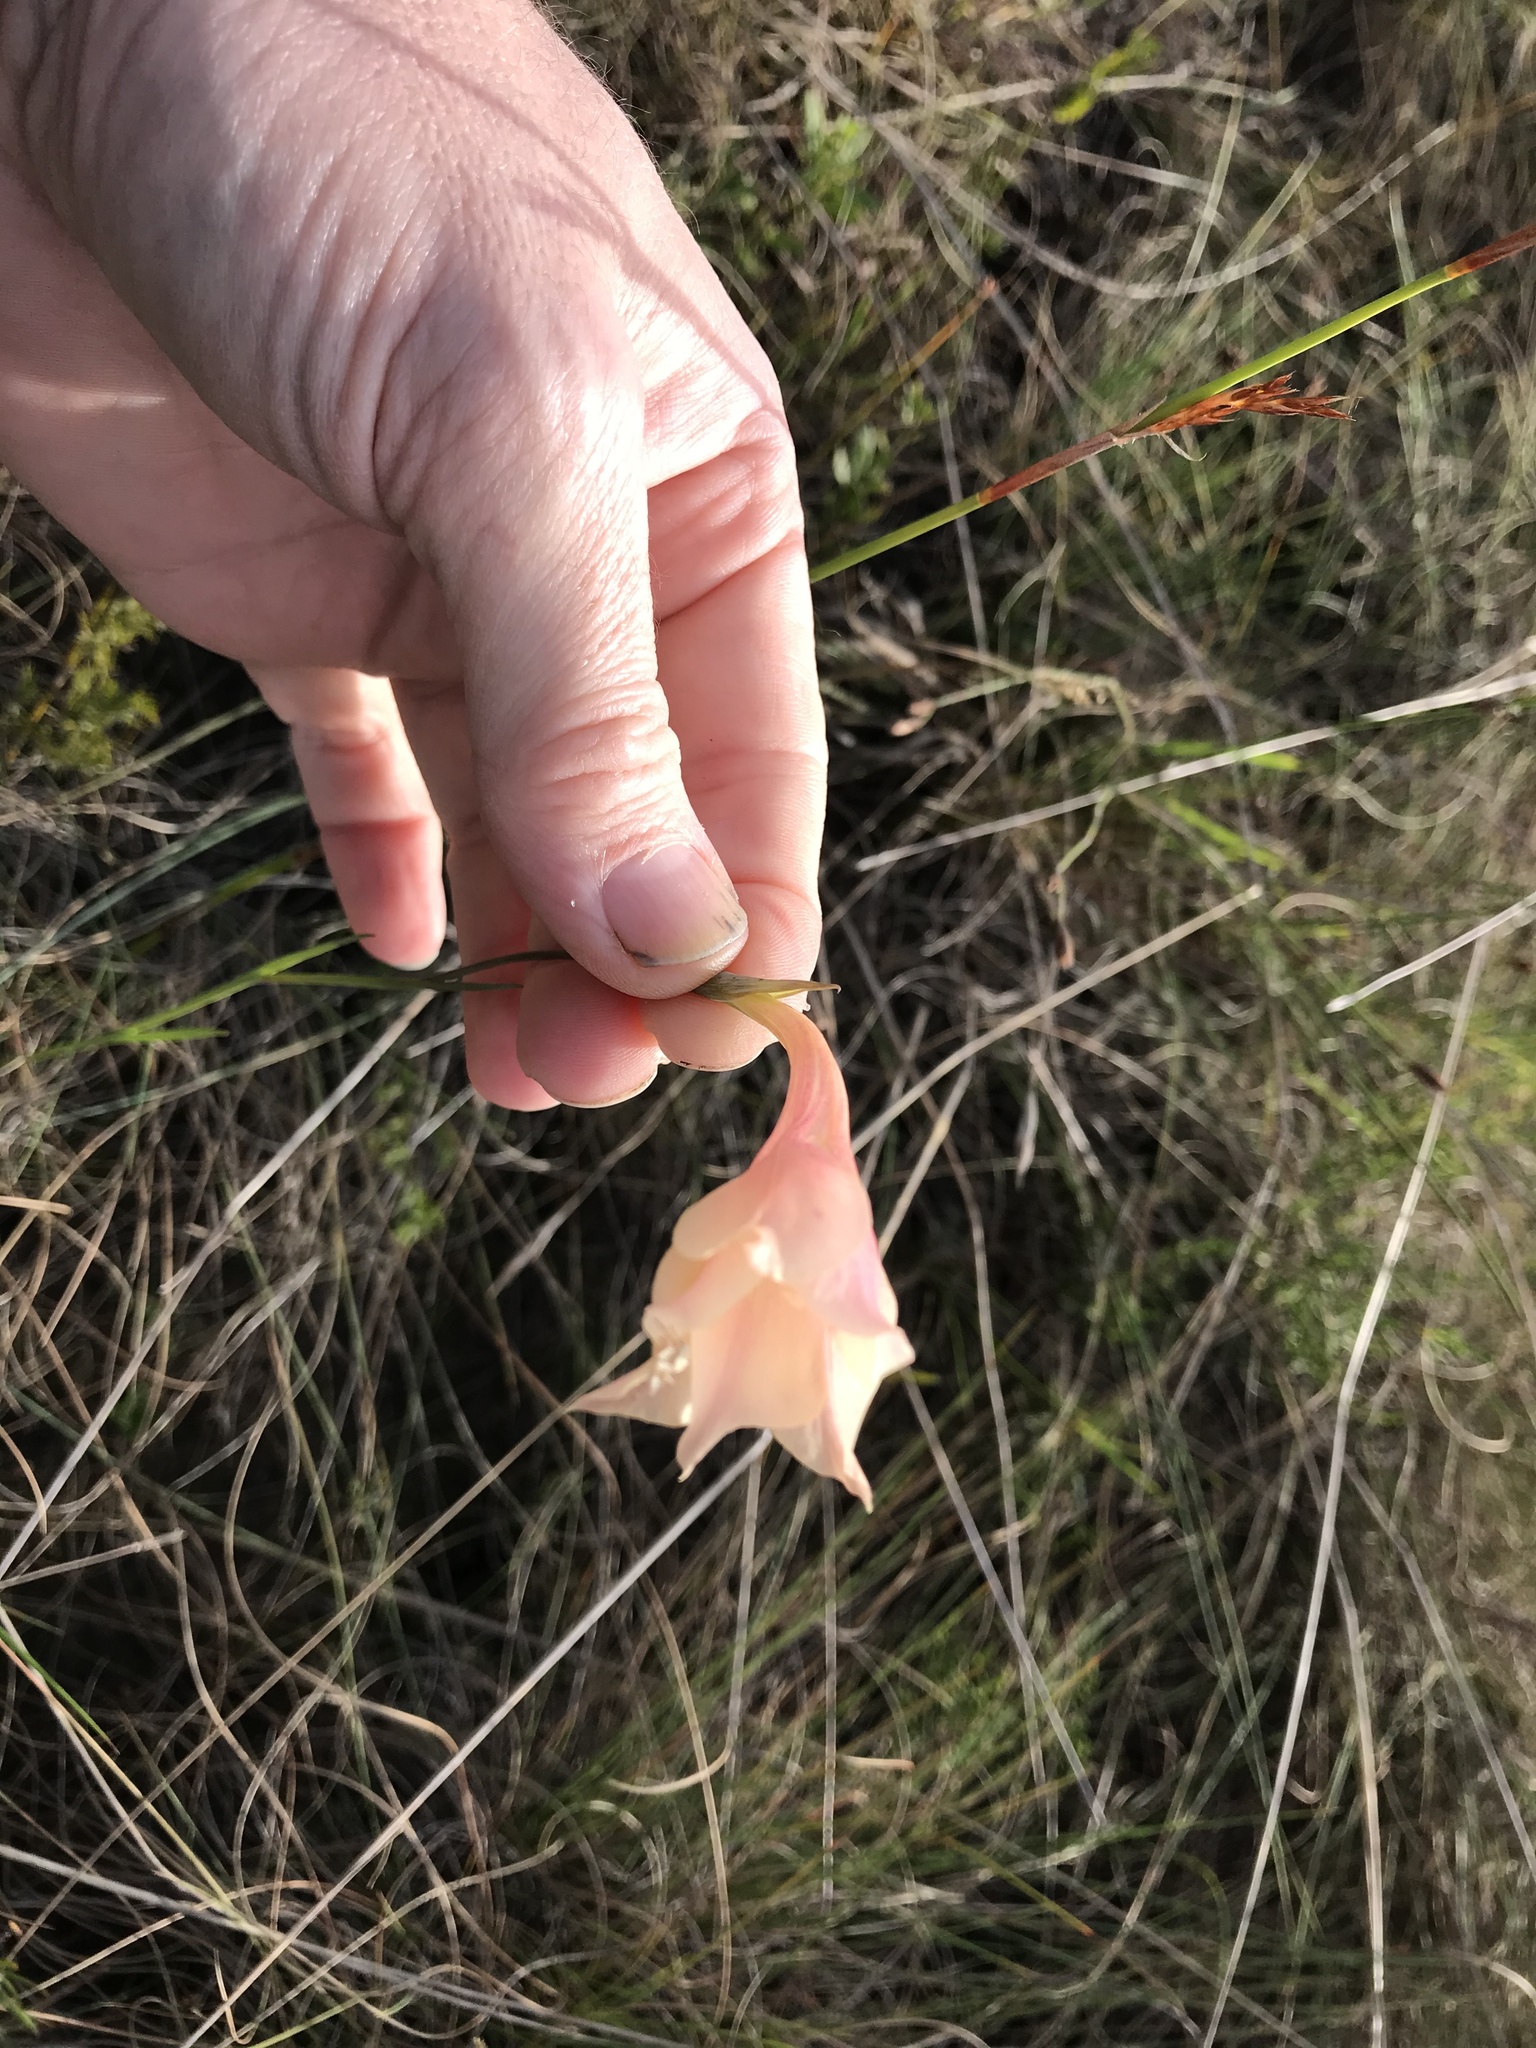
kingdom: Plantae
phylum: Tracheophyta
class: Liliopsida
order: Asparagales
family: Iridaceae
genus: Gladiolus
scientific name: Gladiolus albens
